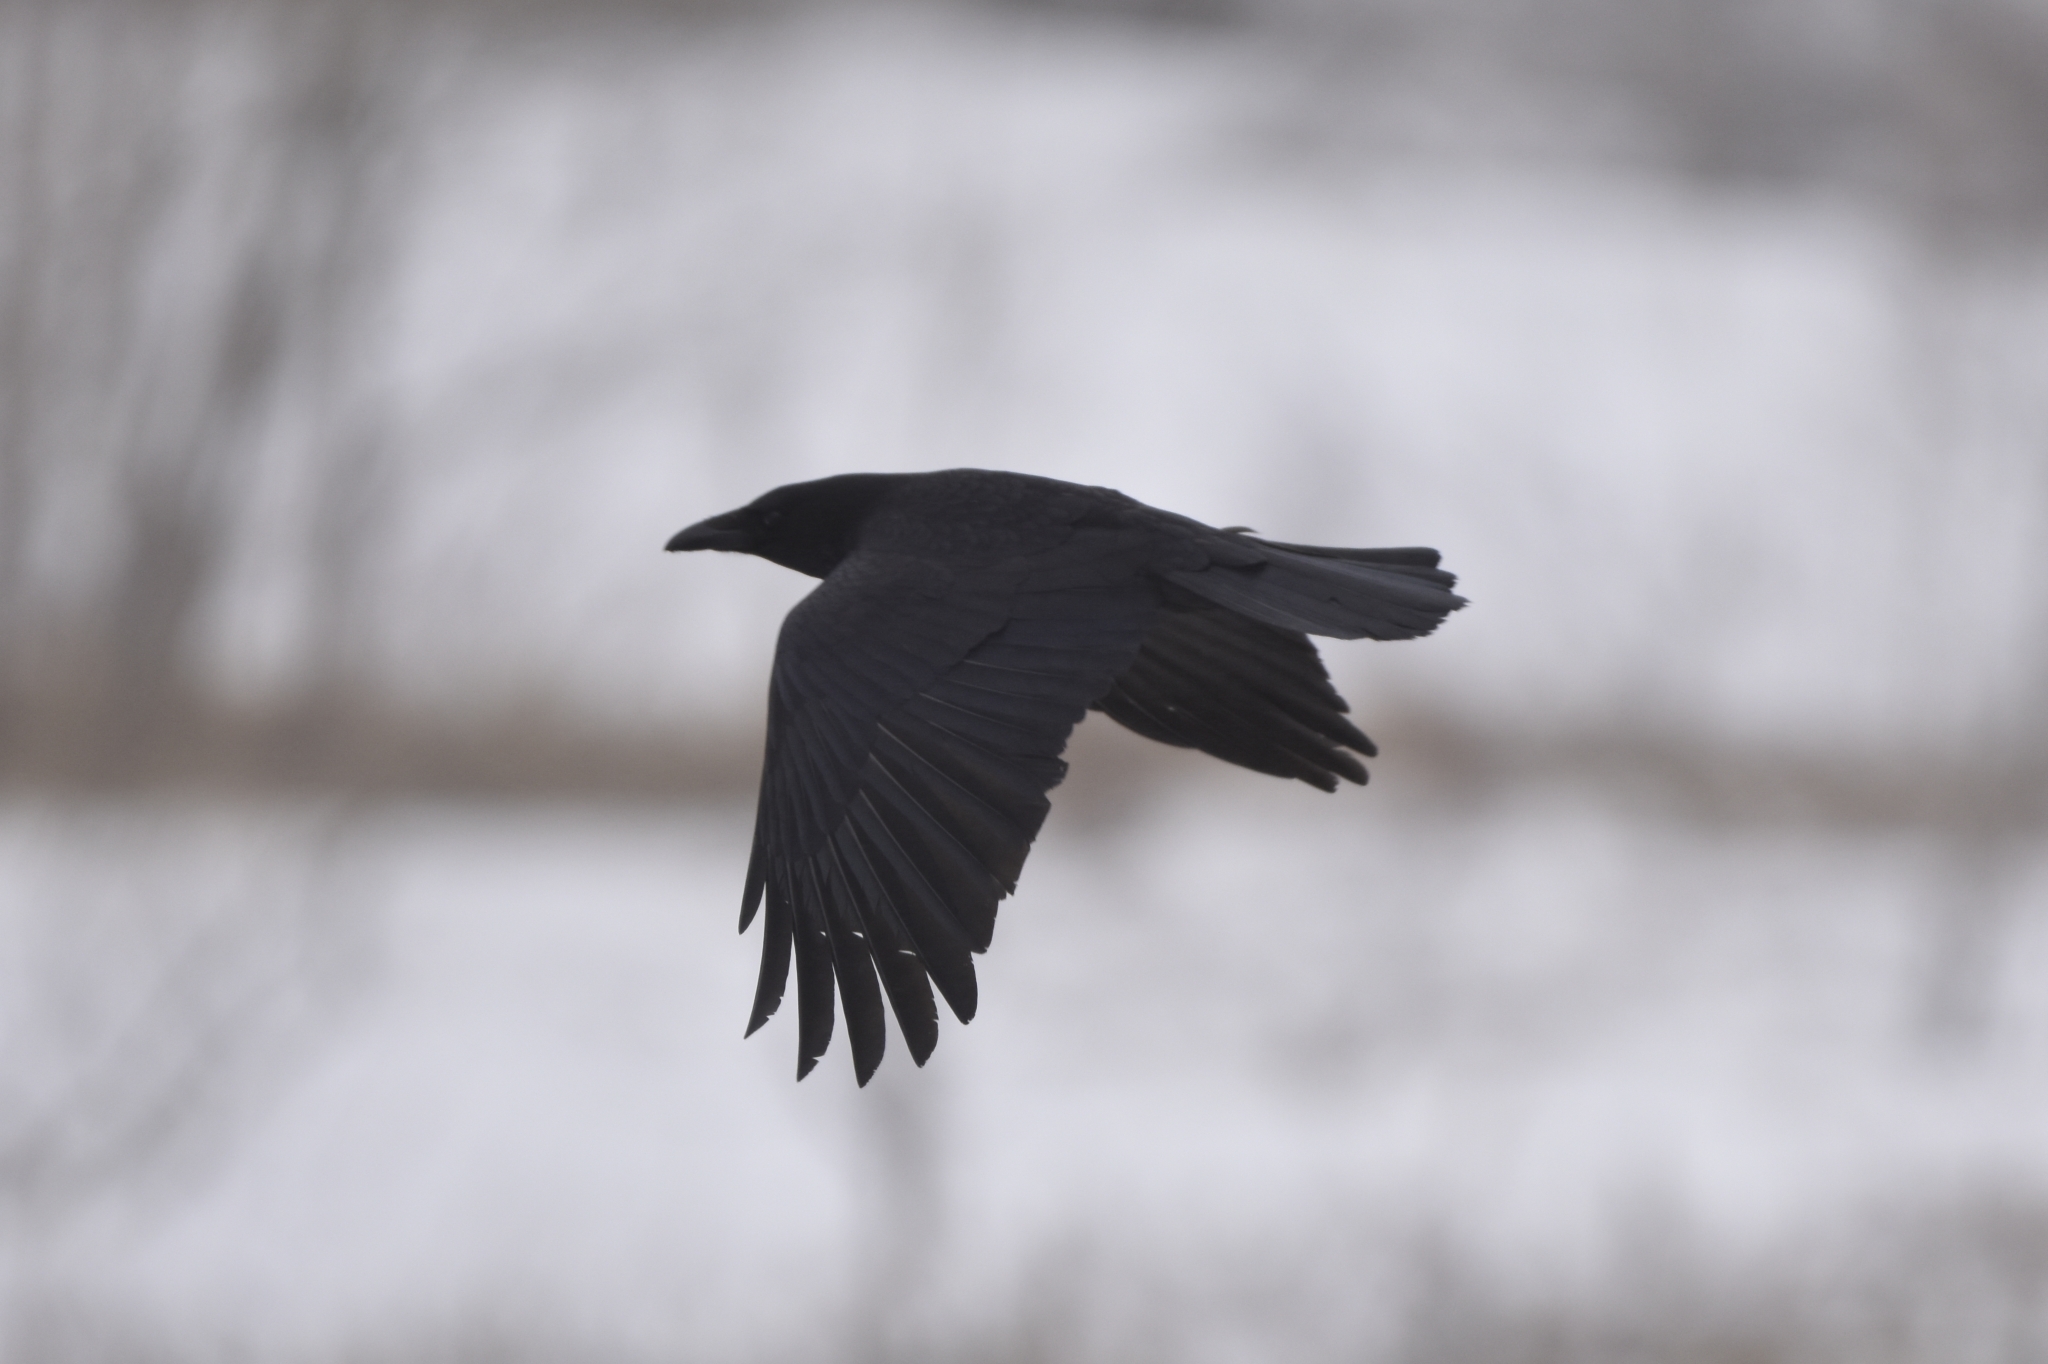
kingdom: Animalia
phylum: Chordata
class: Aves
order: Passeriformes
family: Corvidae
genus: Corvus
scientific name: Corvus corone
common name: Carrion crow
